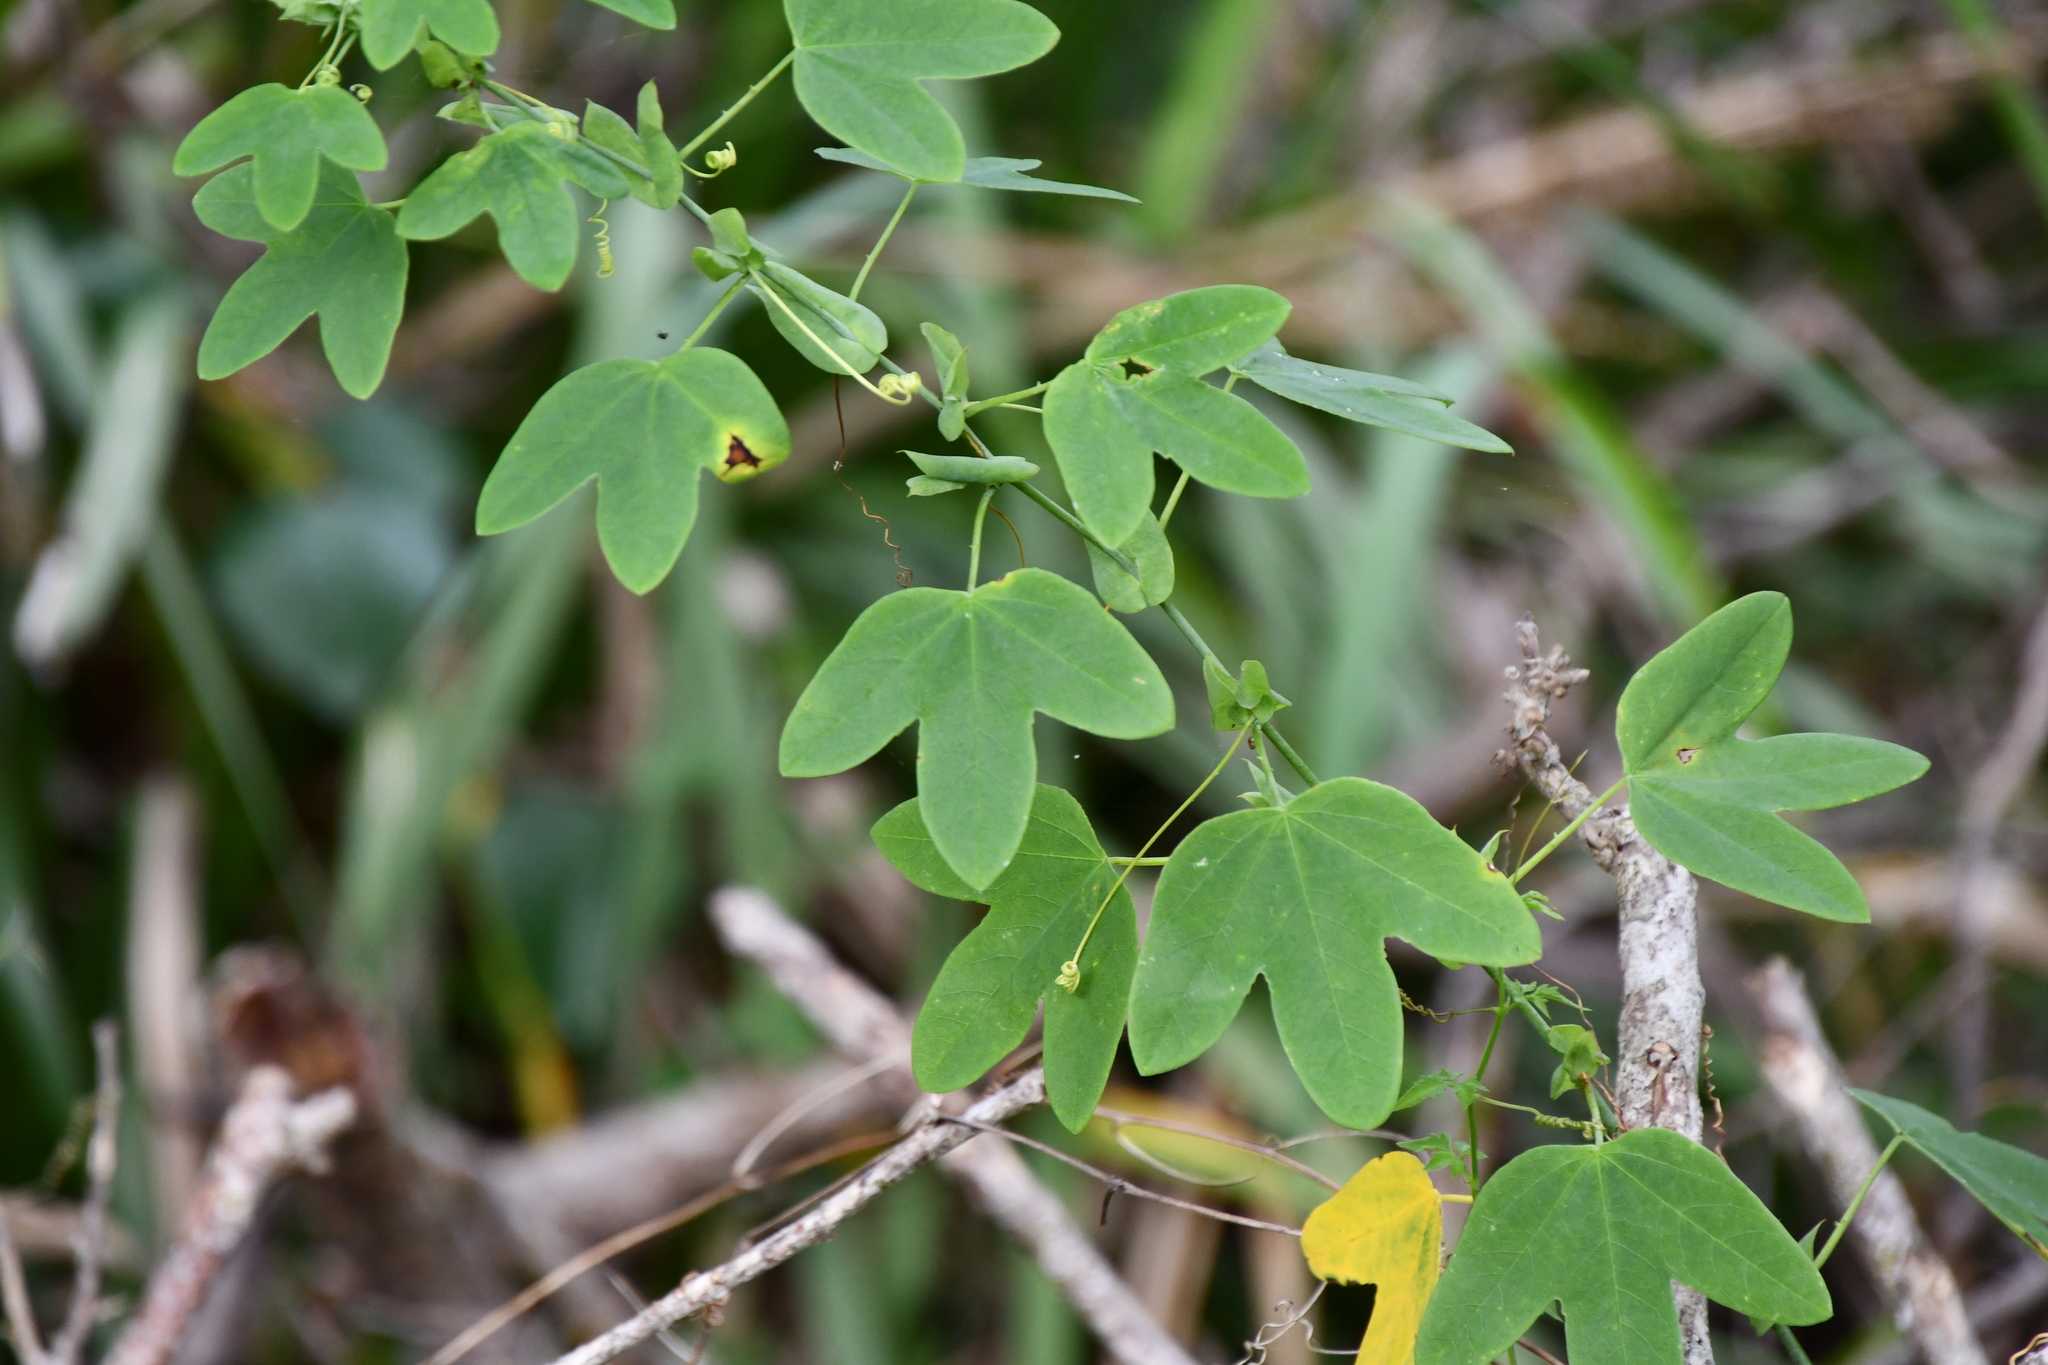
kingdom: Plantae
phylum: Tracheophyta
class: Magnoliopsida
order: Malpighiales
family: Passifloraceae
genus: Passiflora
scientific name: Passiflora subpeltata
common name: White passionflower
